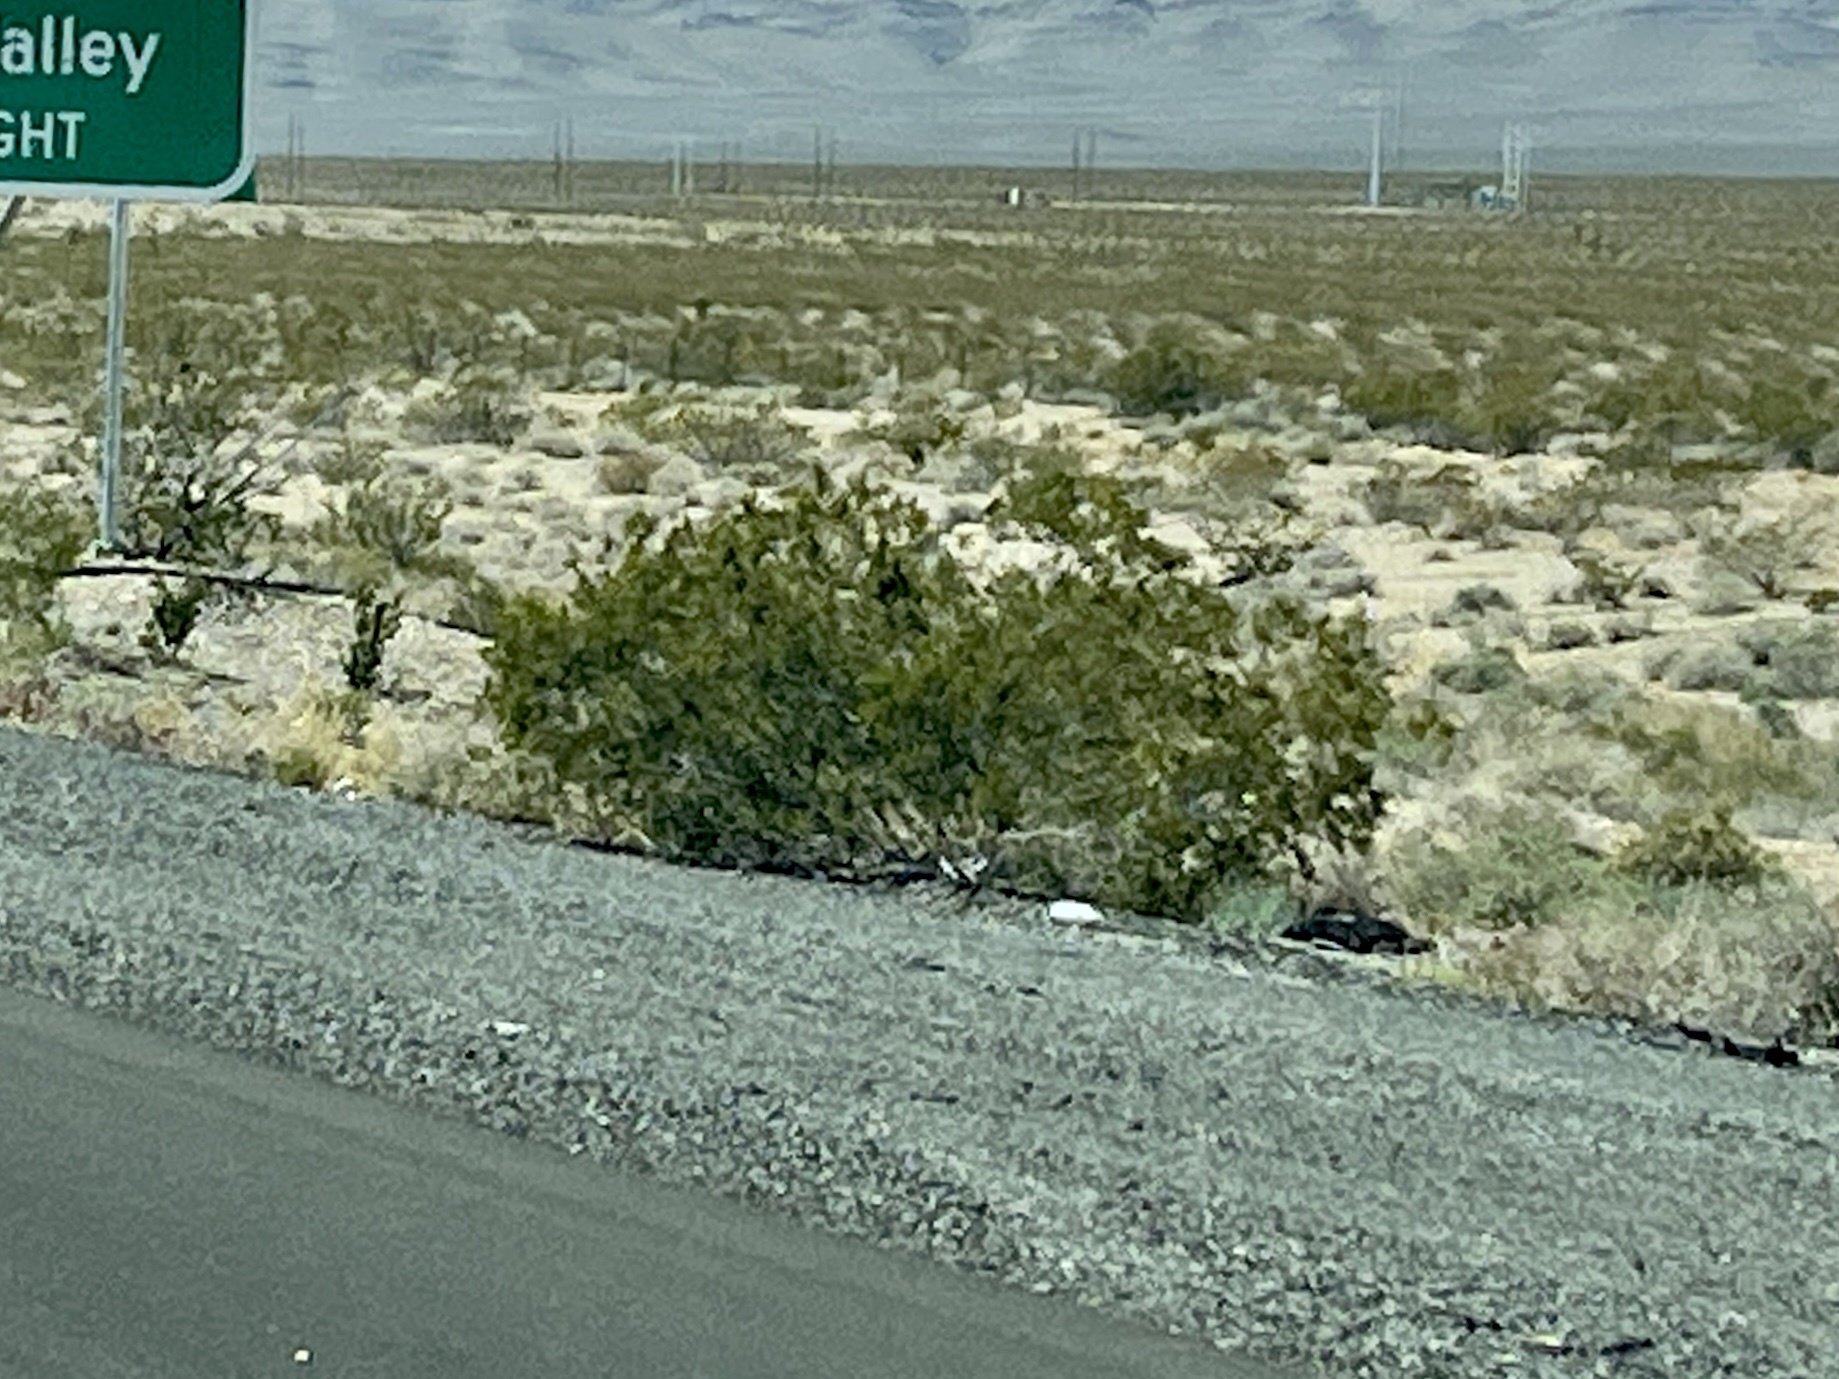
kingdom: Plantae
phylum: Tracheophyta
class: Magnoliopsida
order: Zygophyllales
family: Zygophyllaceae
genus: Larrea
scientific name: Larrea tridentata
